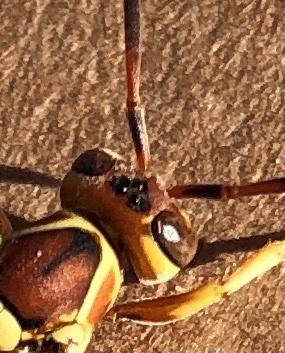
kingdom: Animalia
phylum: Arthropoda
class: Insecta
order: Hymenoptera
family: Eumenidae
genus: Polistes
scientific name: Polistes dorsalis
